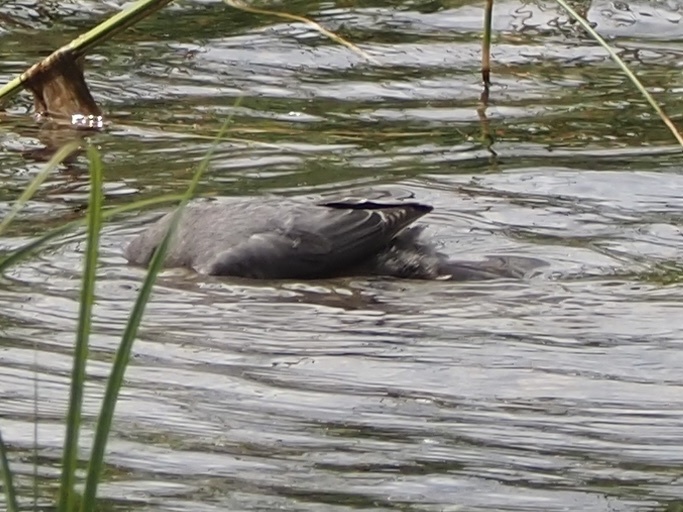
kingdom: Animalia
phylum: Chordata
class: Aves
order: Passeriformes
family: Cinclidae
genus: Cinclus
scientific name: Cinclus mexicanus
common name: American dipper
